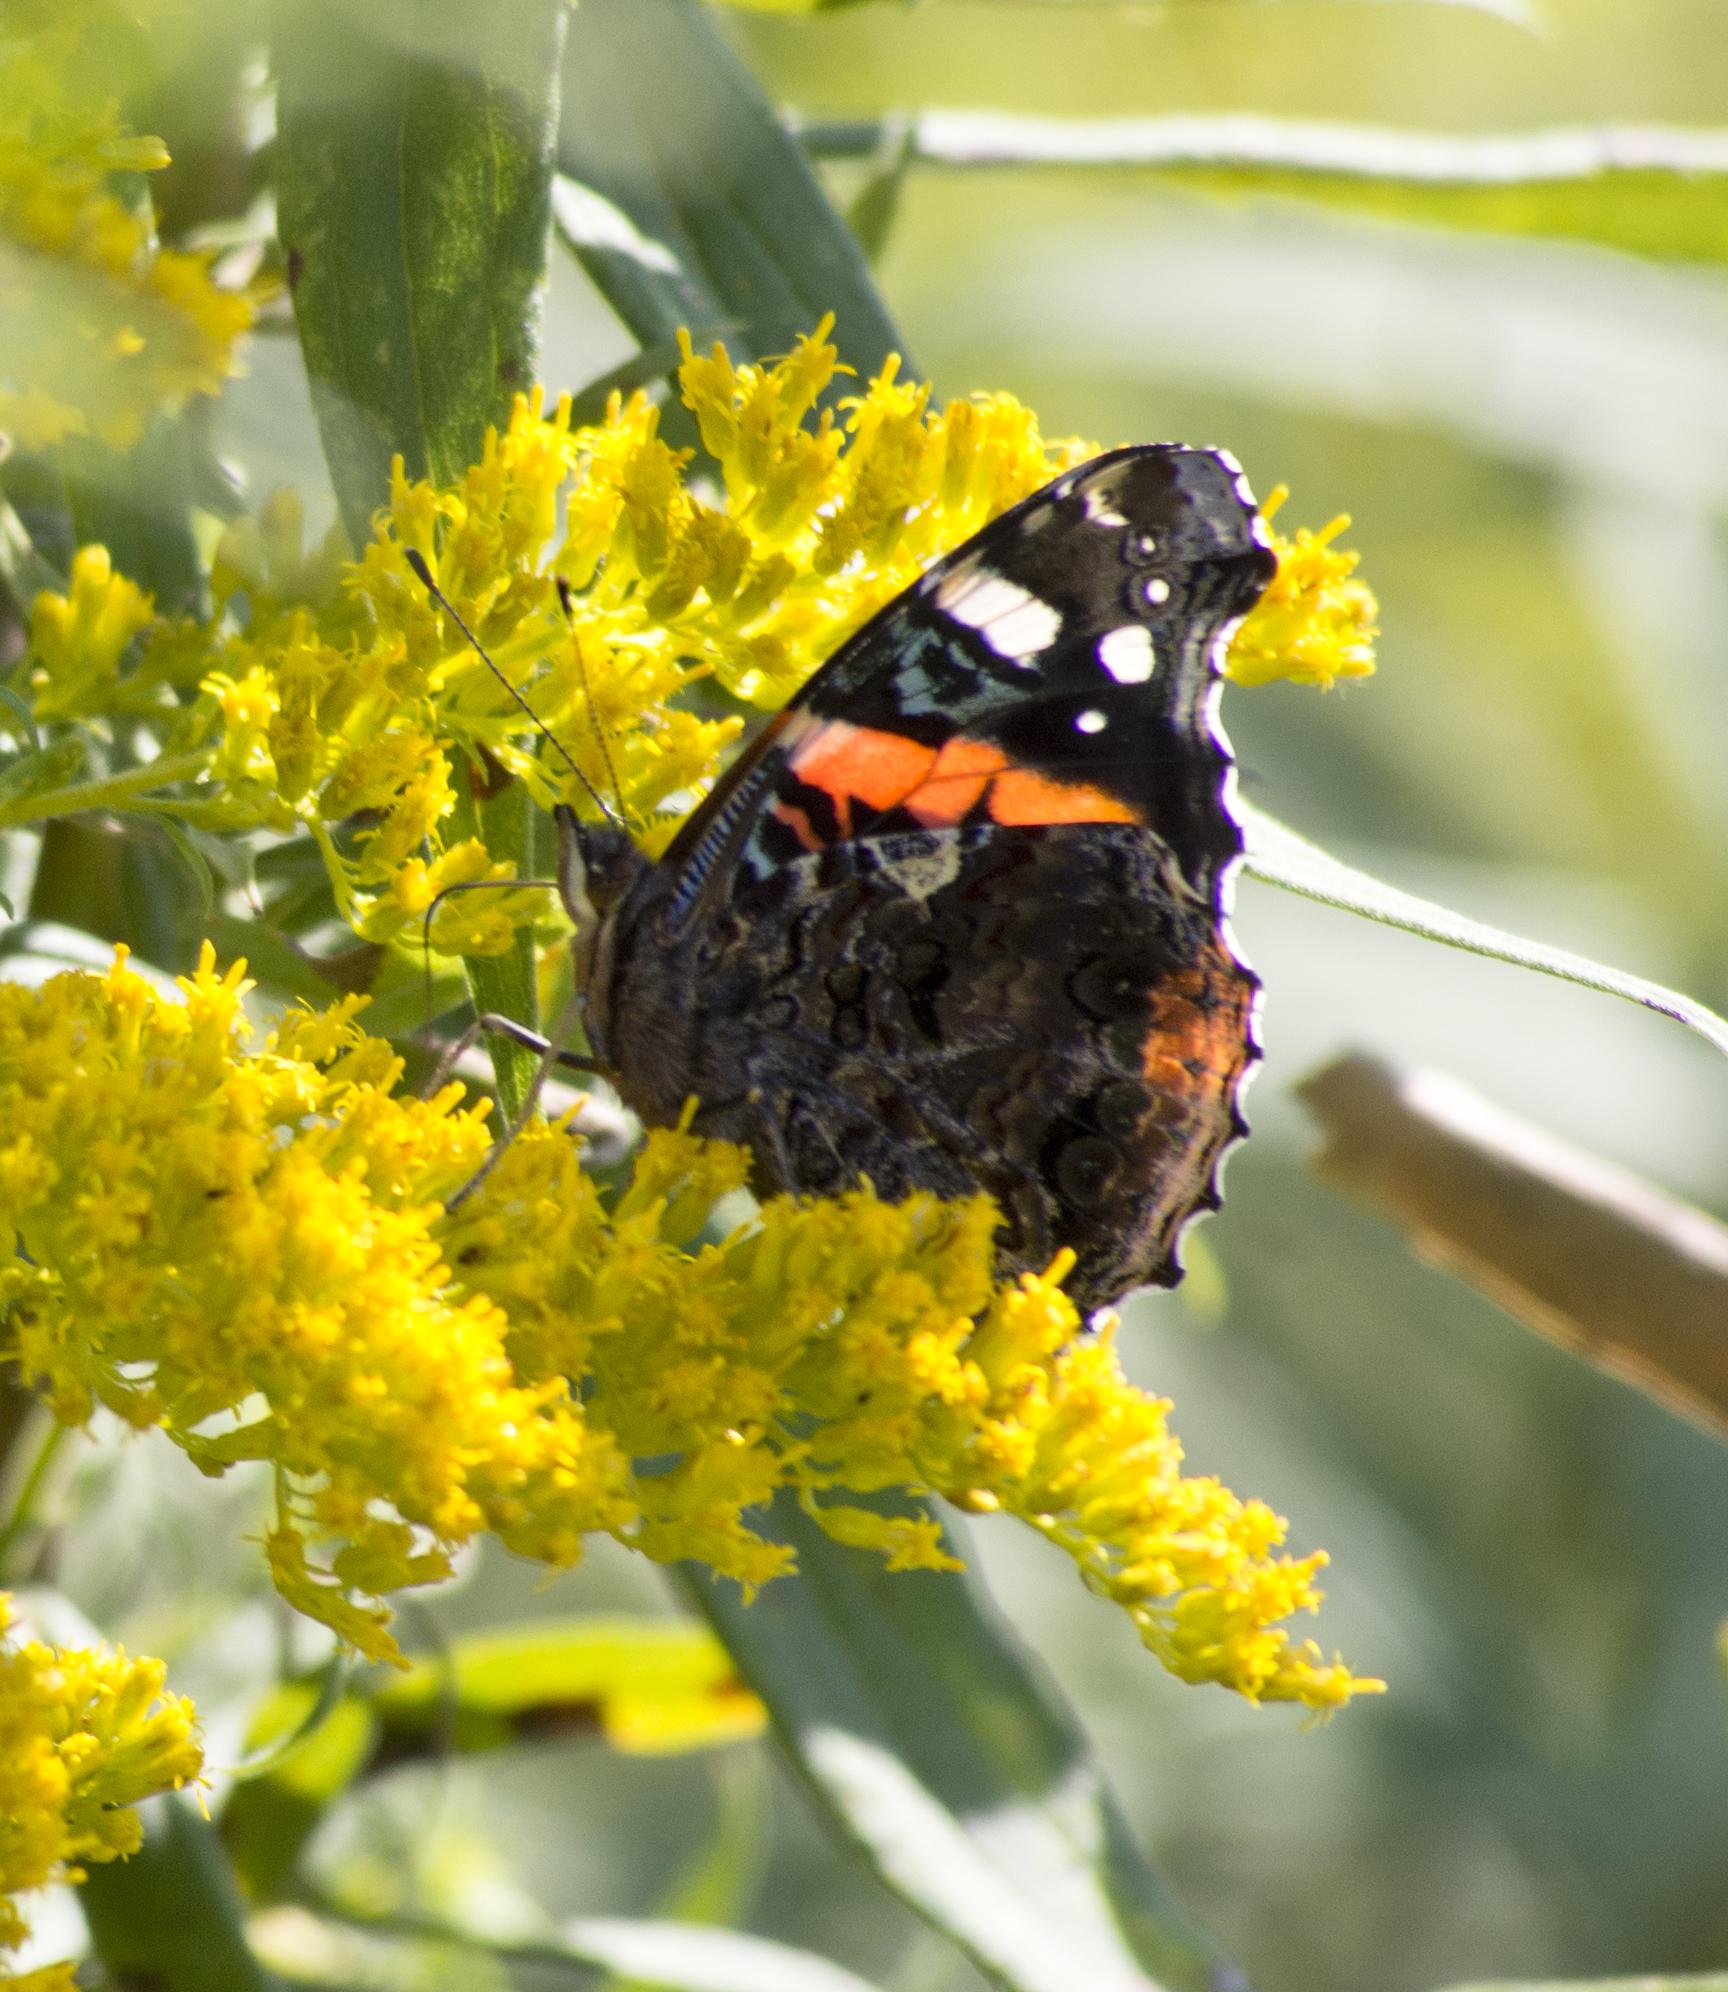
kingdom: Animalia
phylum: Arthropoda
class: Insecta
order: Lepidoptera
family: Nymphalidae
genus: Vanessa
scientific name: Vanessa atalanta
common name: Red admiral
